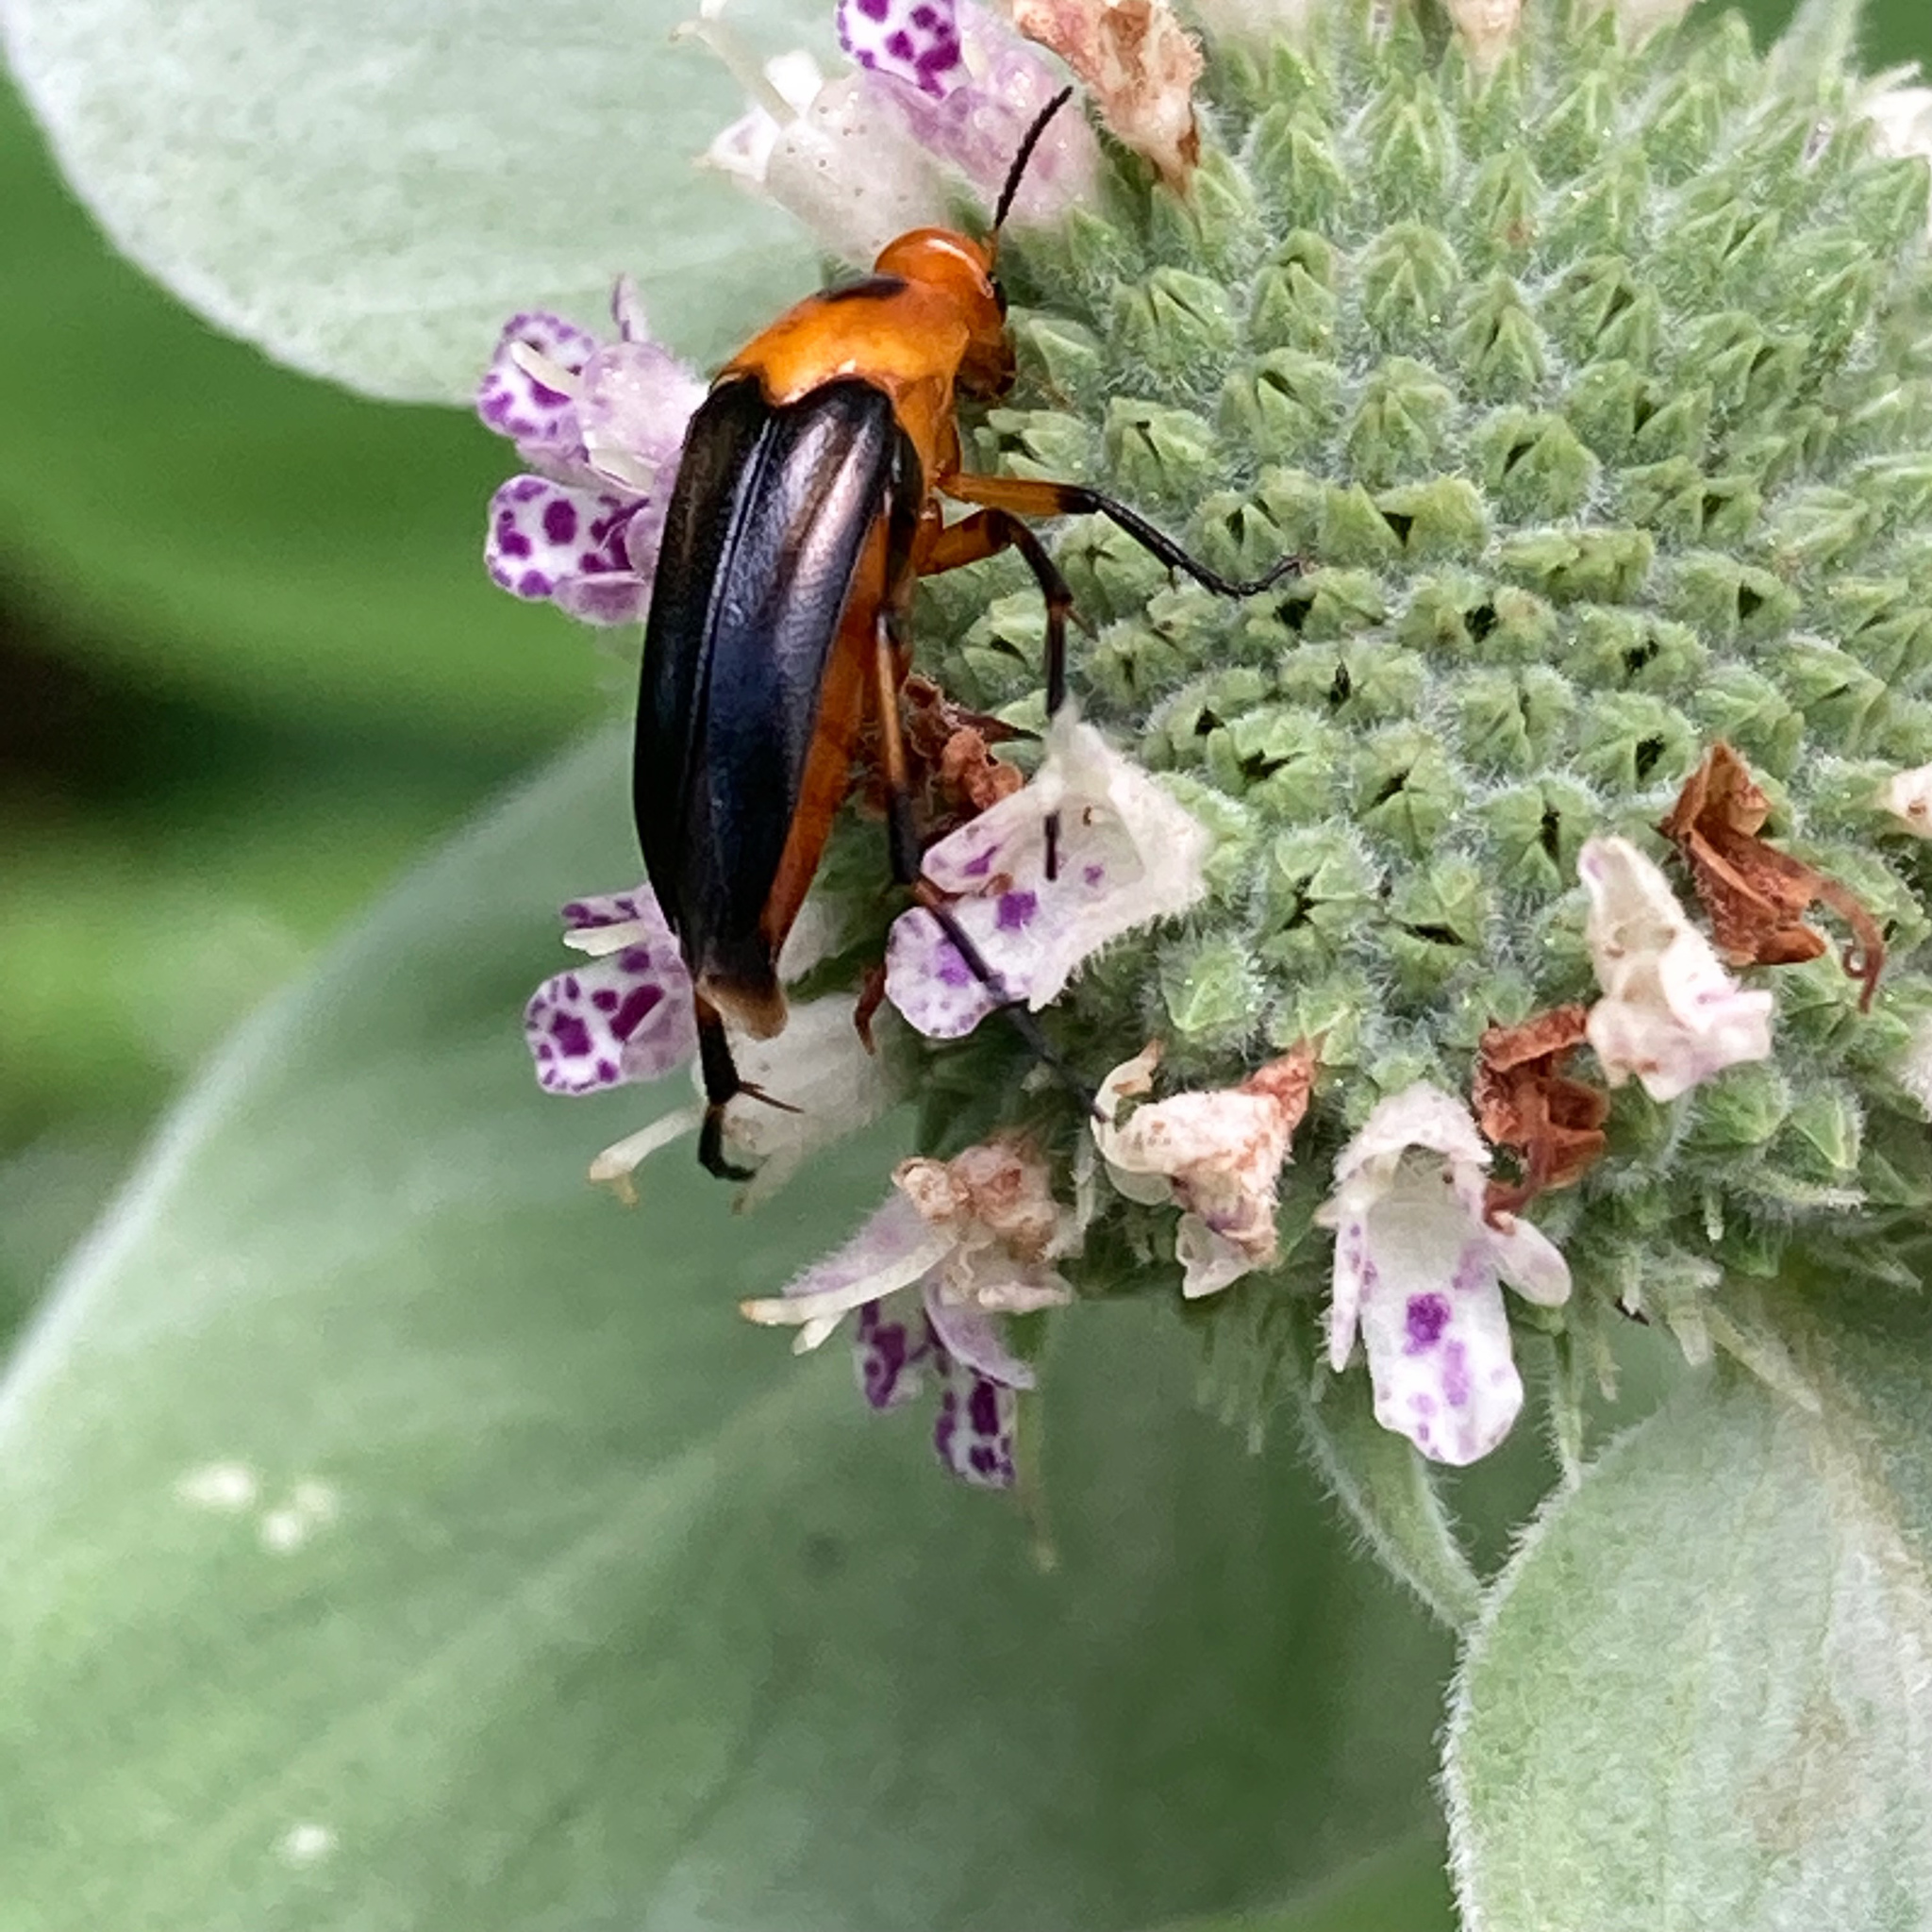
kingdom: Animalia
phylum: Arthropoda
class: Insecta
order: Coleoptera
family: Ripiphoridae
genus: Macrosiagon
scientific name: Macrosiagon limbatum
